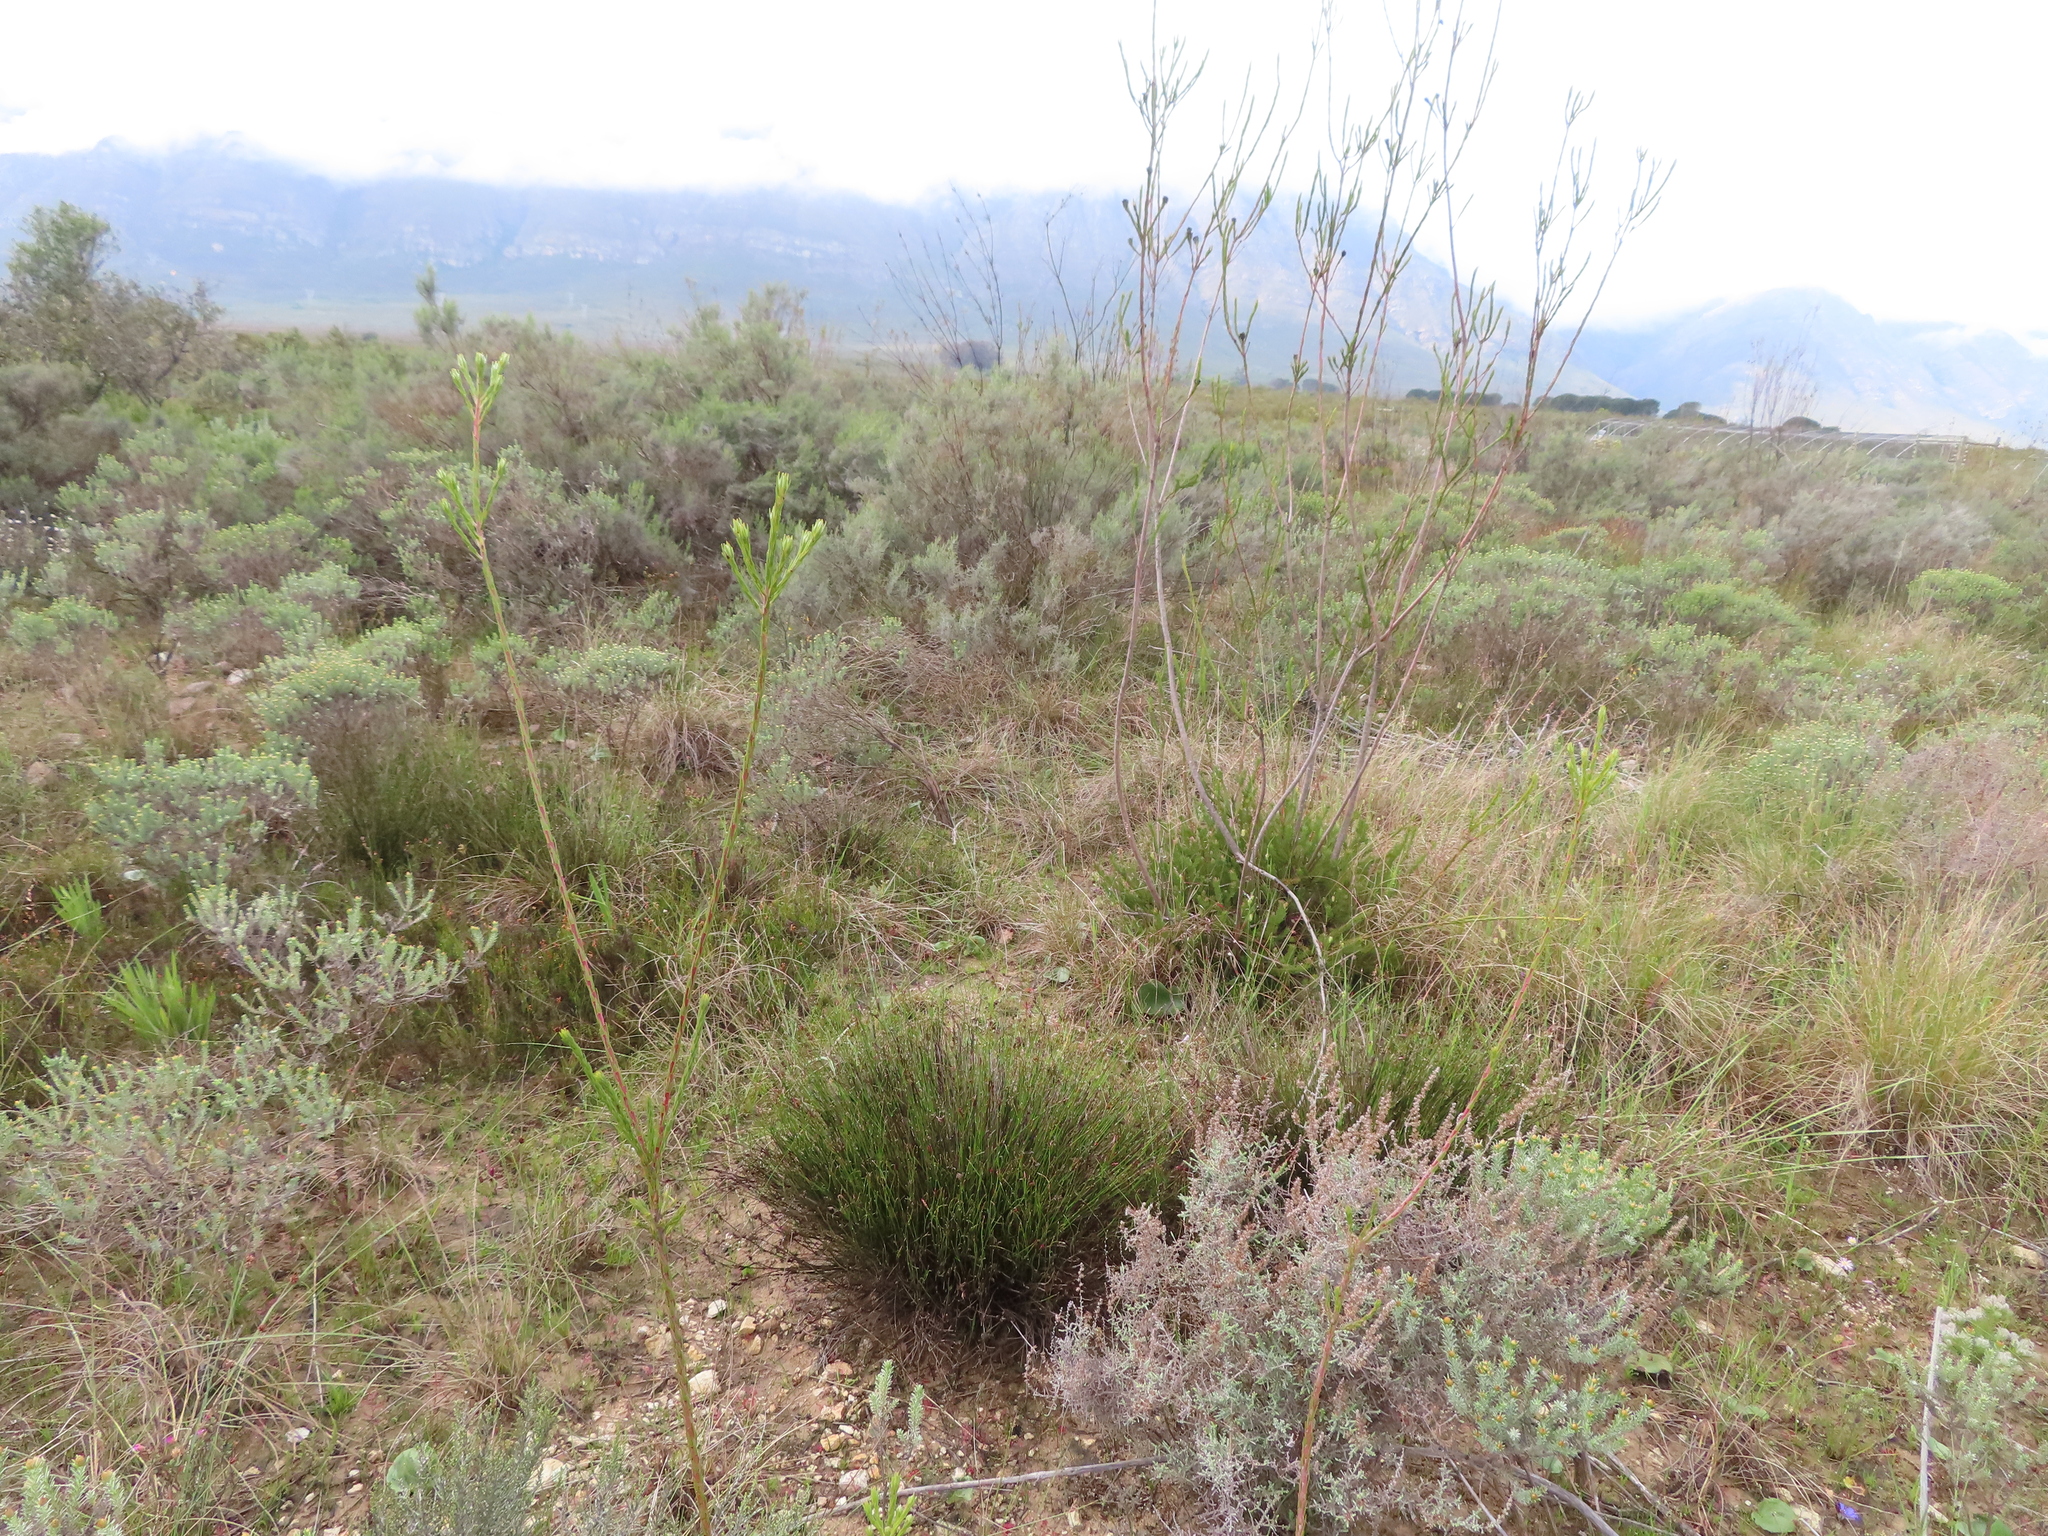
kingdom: Plantae
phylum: Tracheophyta
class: Magnoliopsida
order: Proteales
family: Proteaceae
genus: Leucadendron
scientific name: Leucadendron corymbosum
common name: Swartveld conebush
